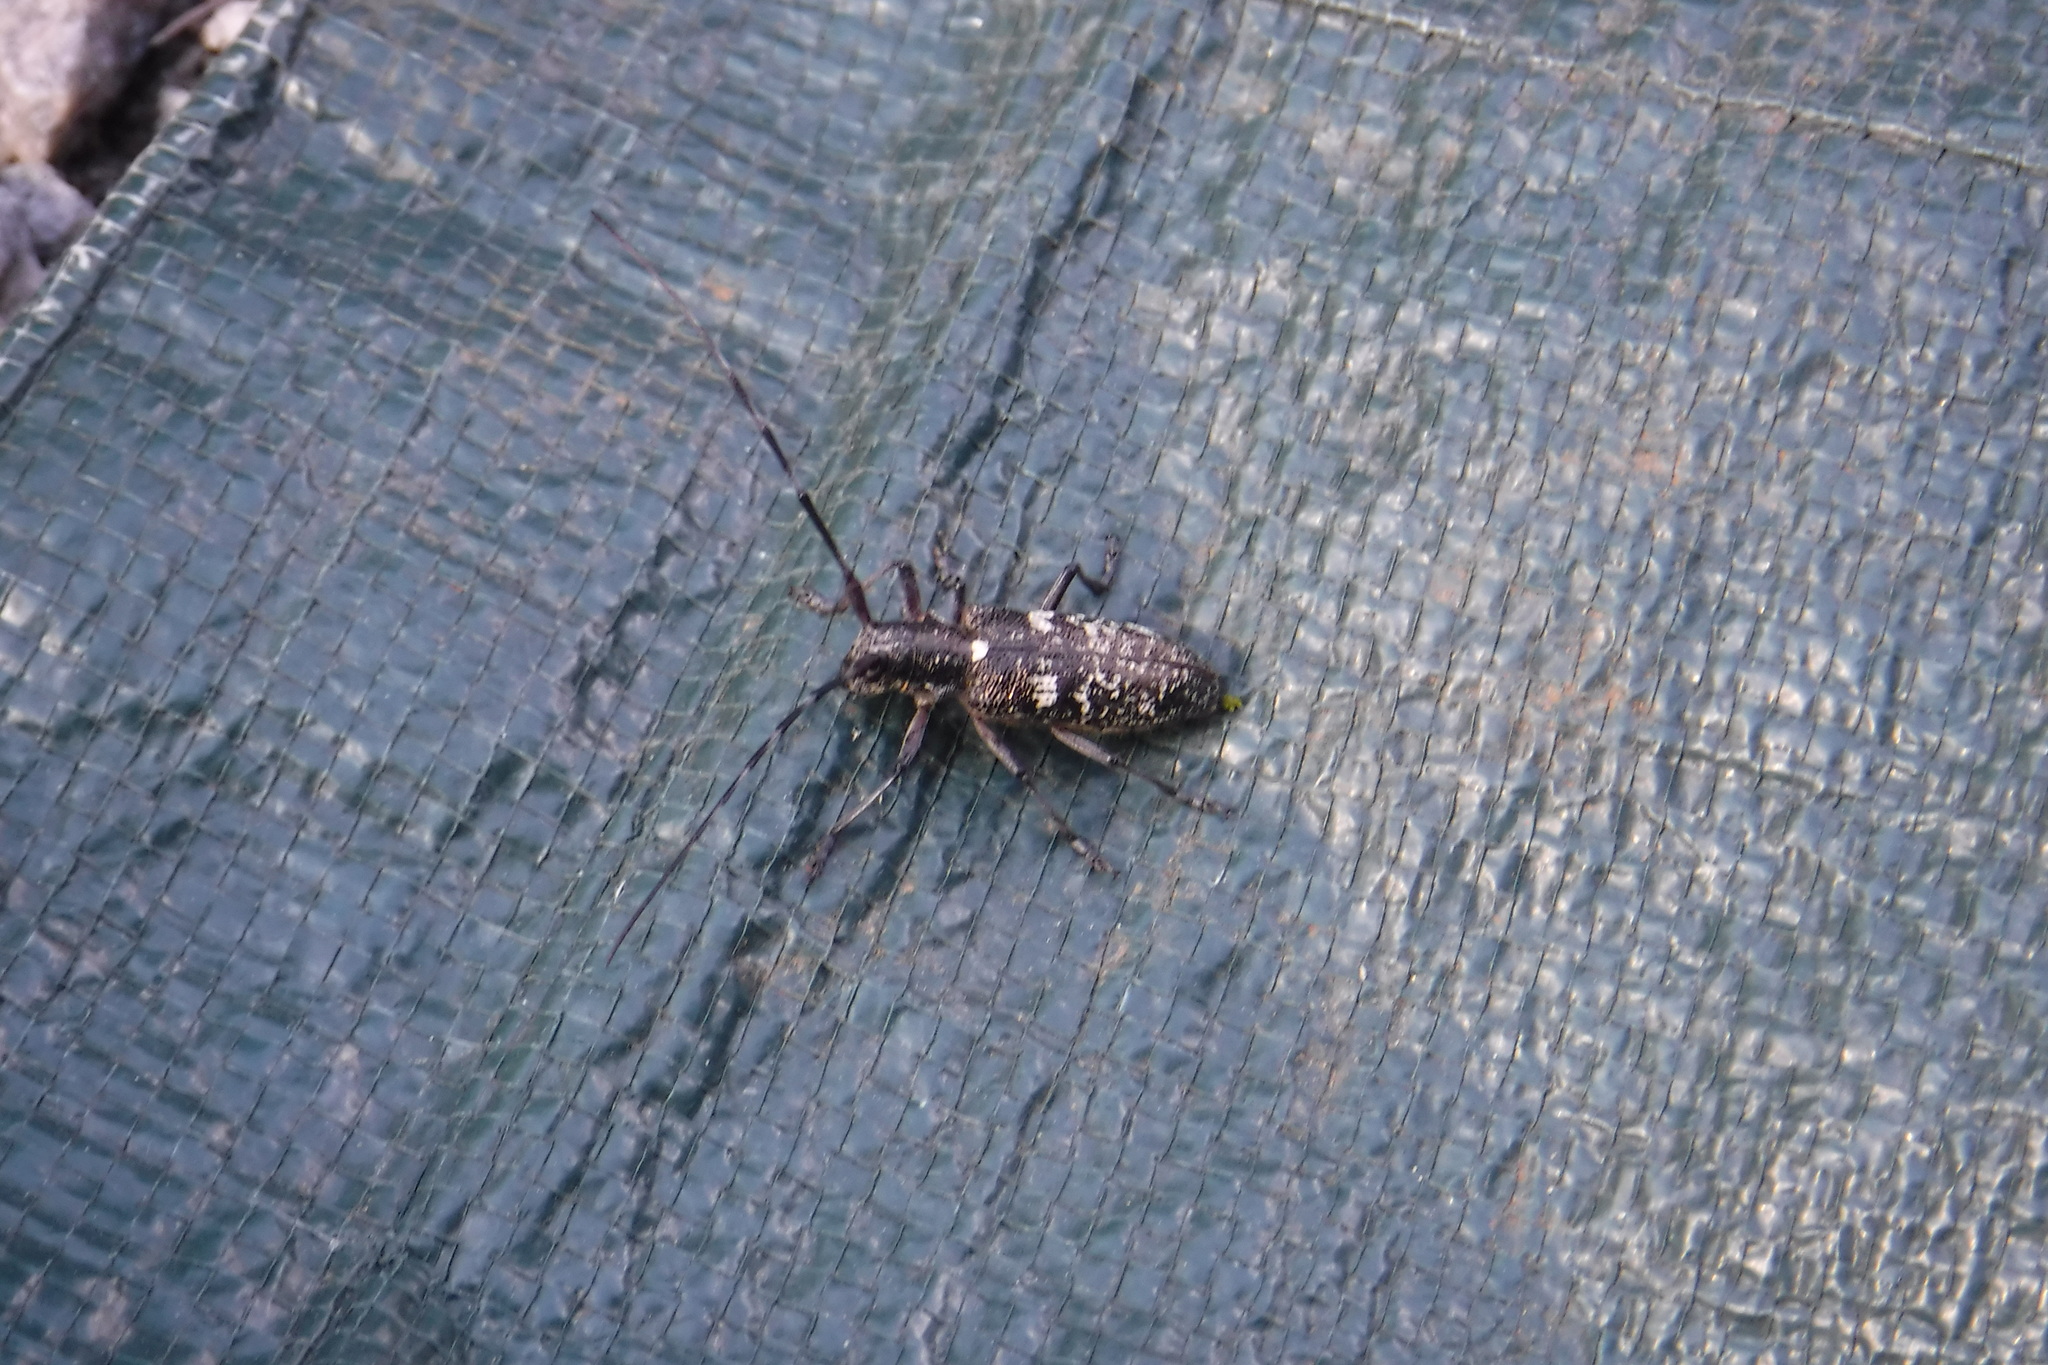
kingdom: Animalia
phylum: Arthropoda
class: Insecta
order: Coleoptera
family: Cerambycidae
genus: Monochamus
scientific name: Monochamus scutellatus
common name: White-spotted sawyer beetle
